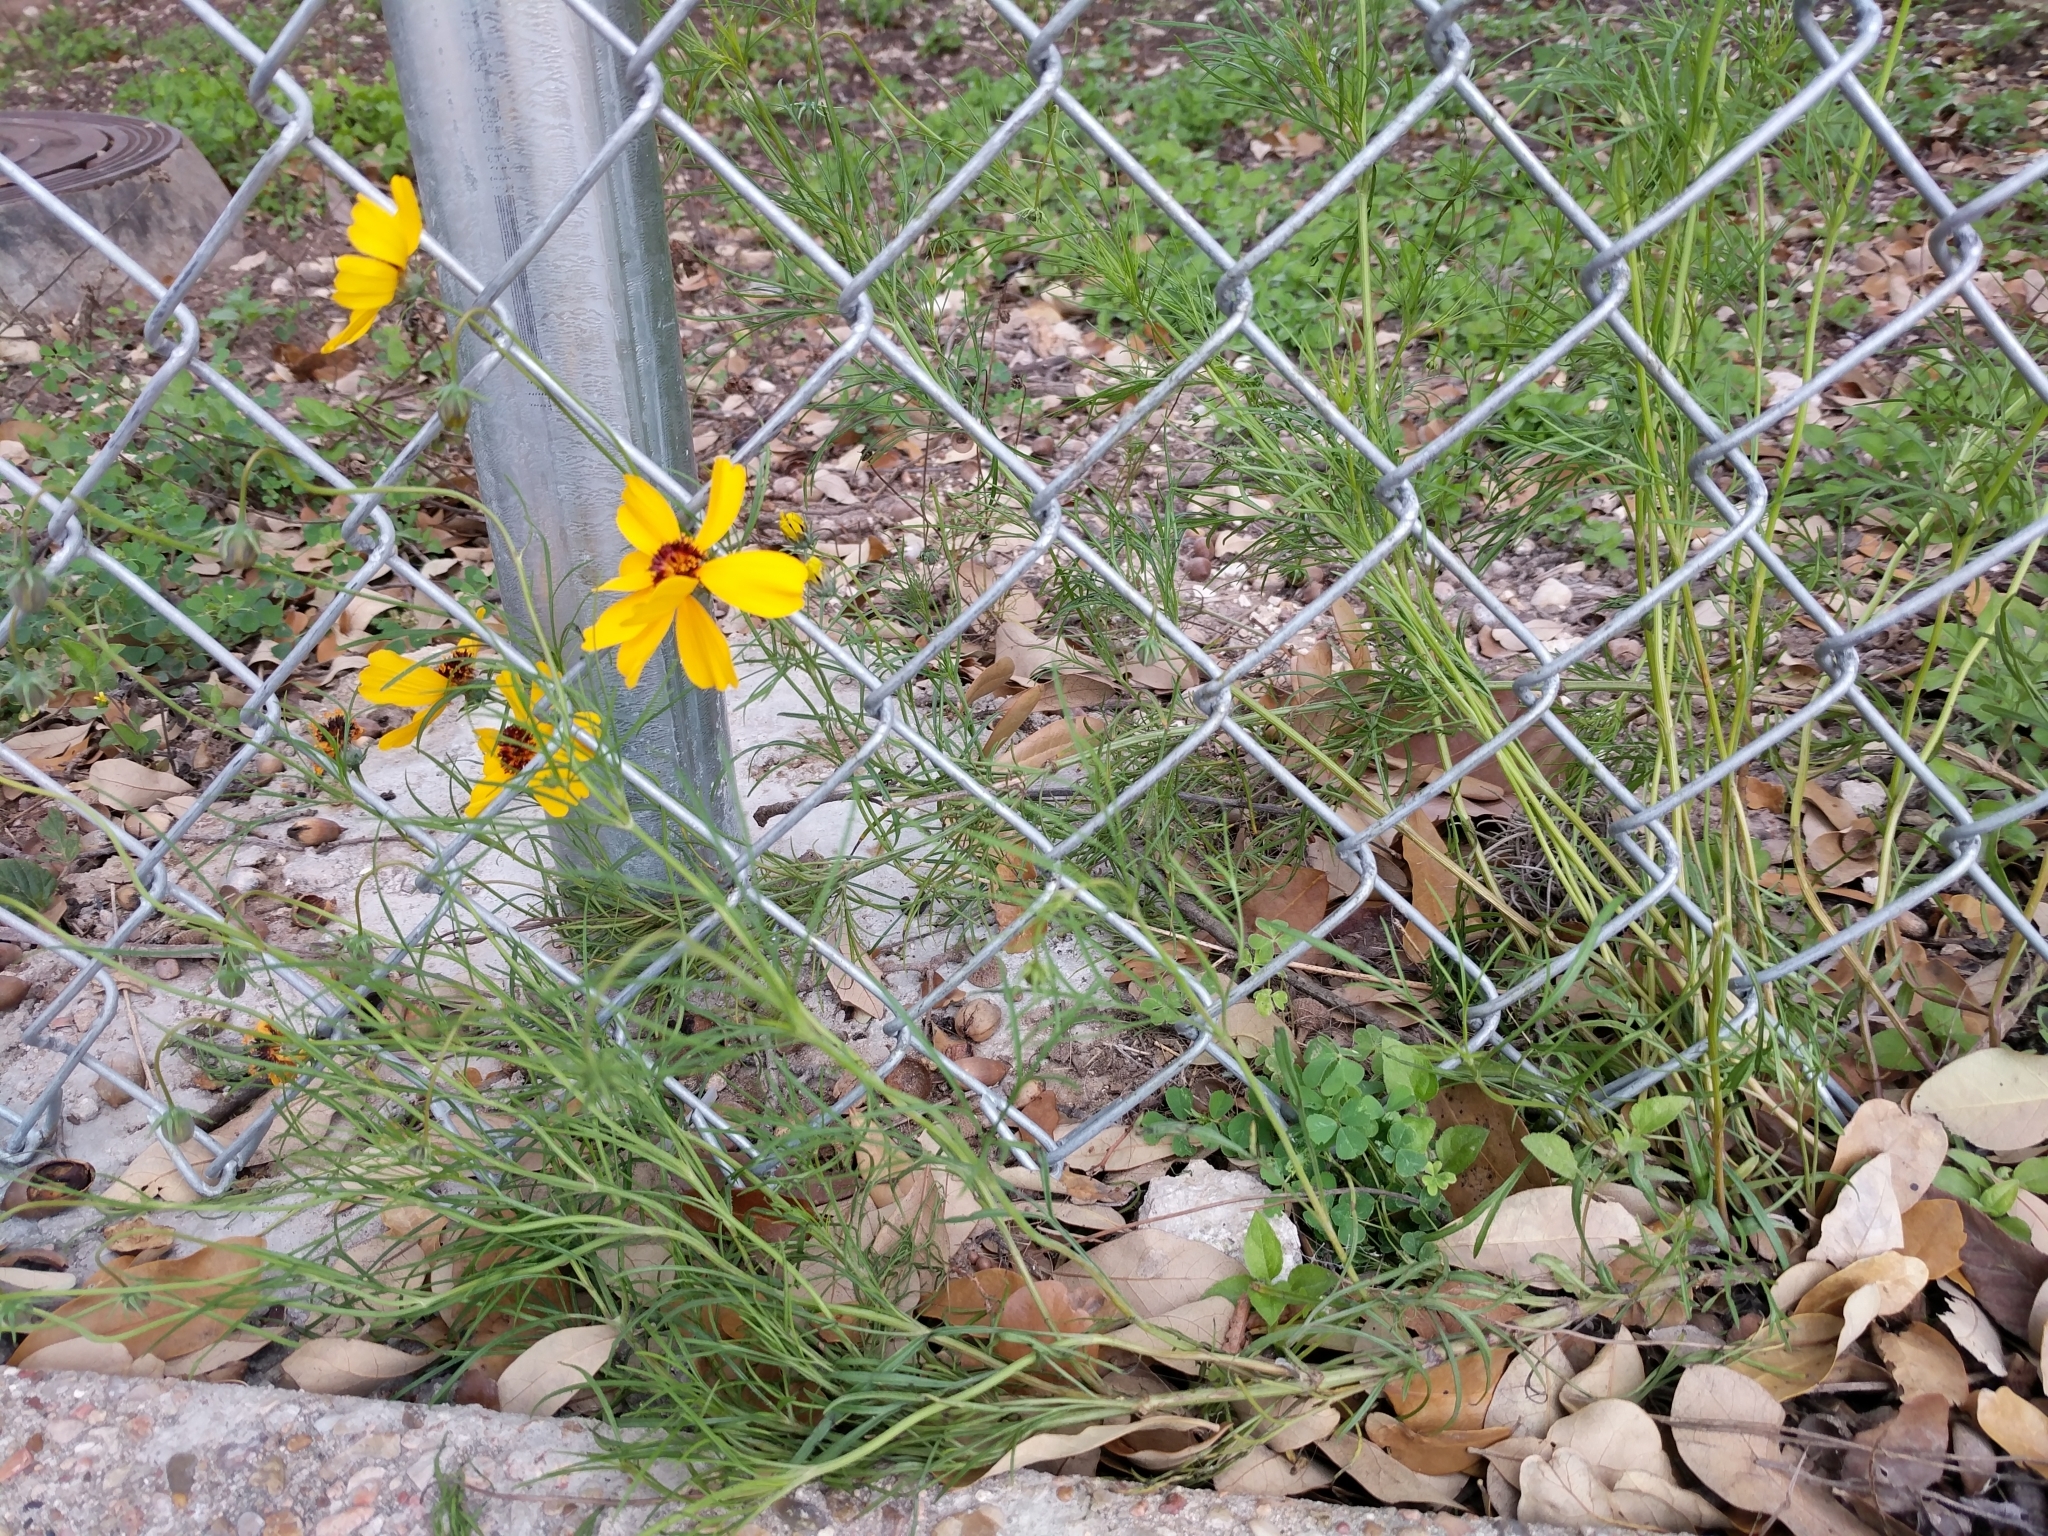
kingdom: Plantae
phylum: Tracheophyta
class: Magnoliopsida
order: Asterales
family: Asteraceae
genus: Thelesperma
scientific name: Thelesperma filifolium
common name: Stiff greenthread
